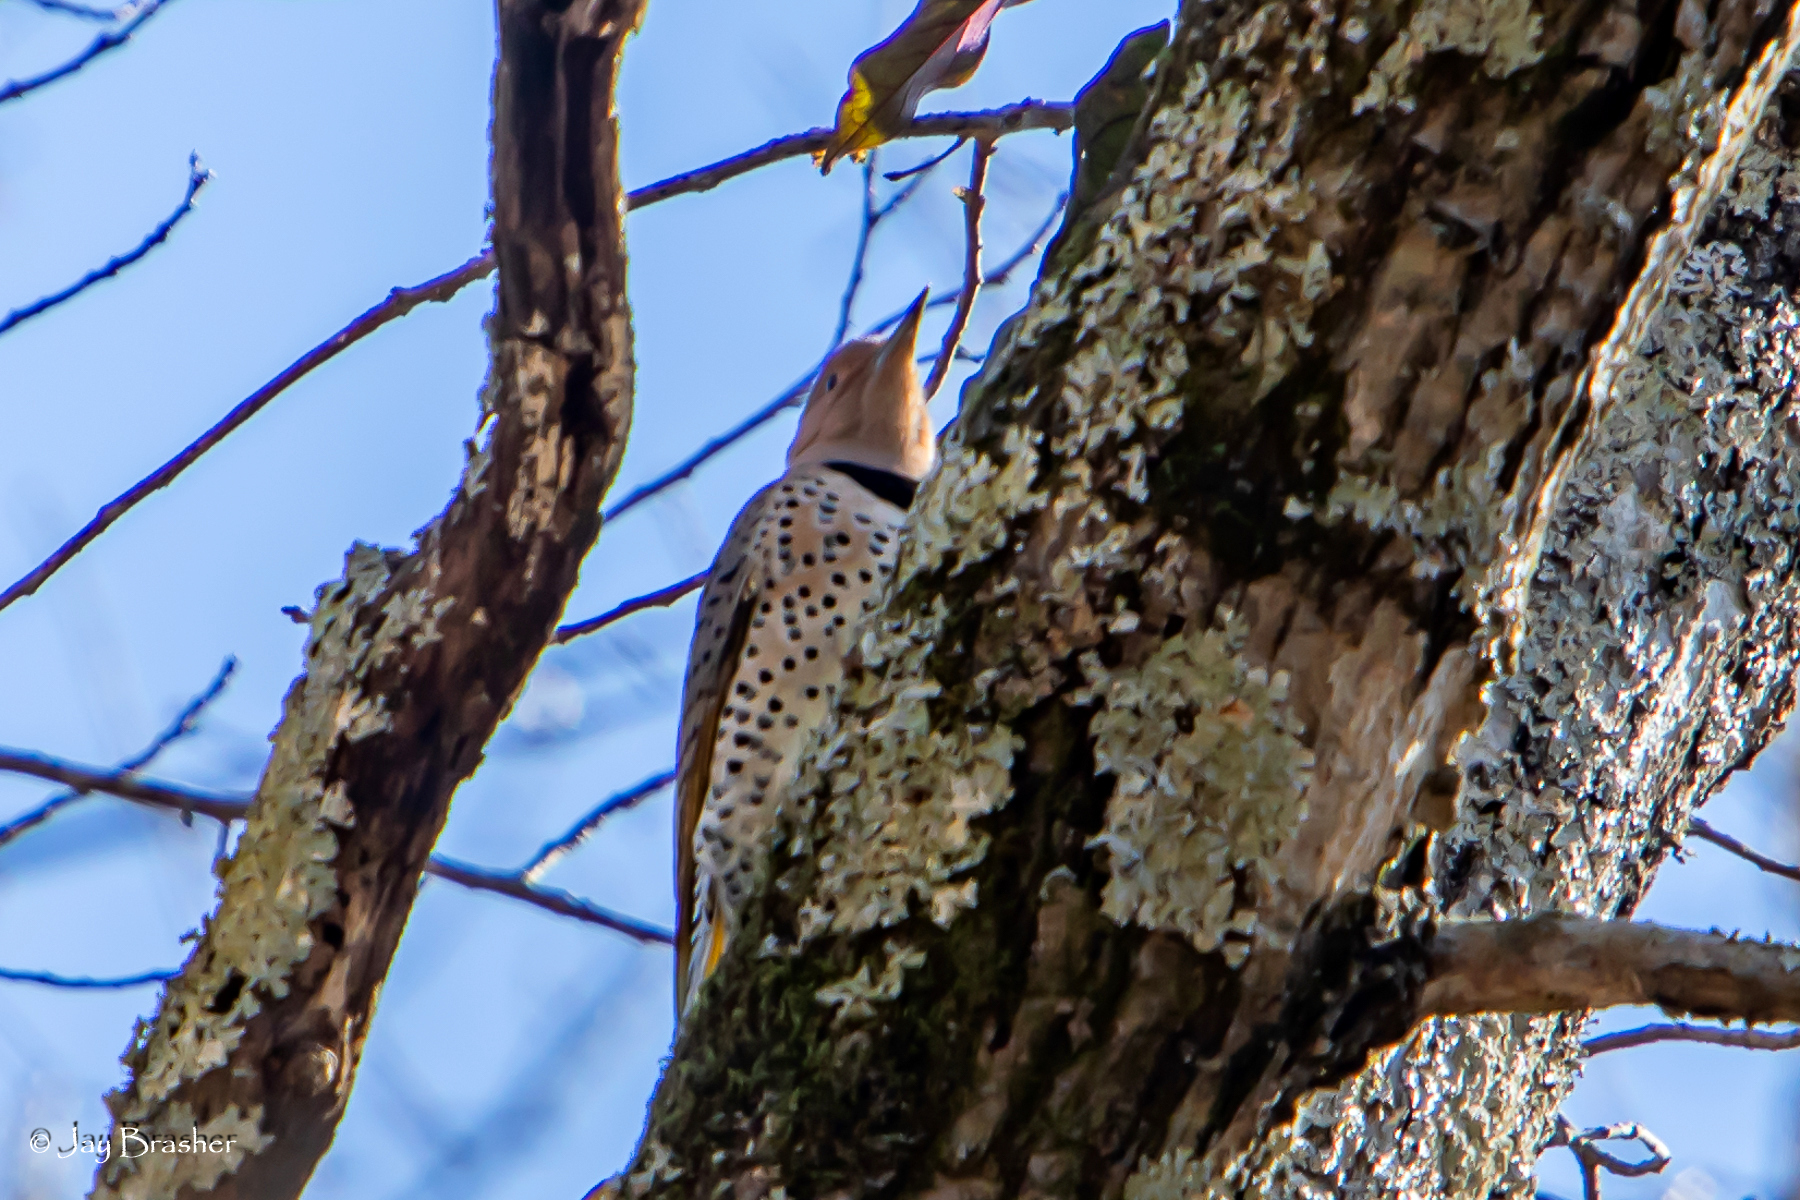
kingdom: Animalia
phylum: Chordata
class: Aves
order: Piciformes
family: Picidae
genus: Colaptes
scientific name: Colaptes auratus
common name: Northern flicker
